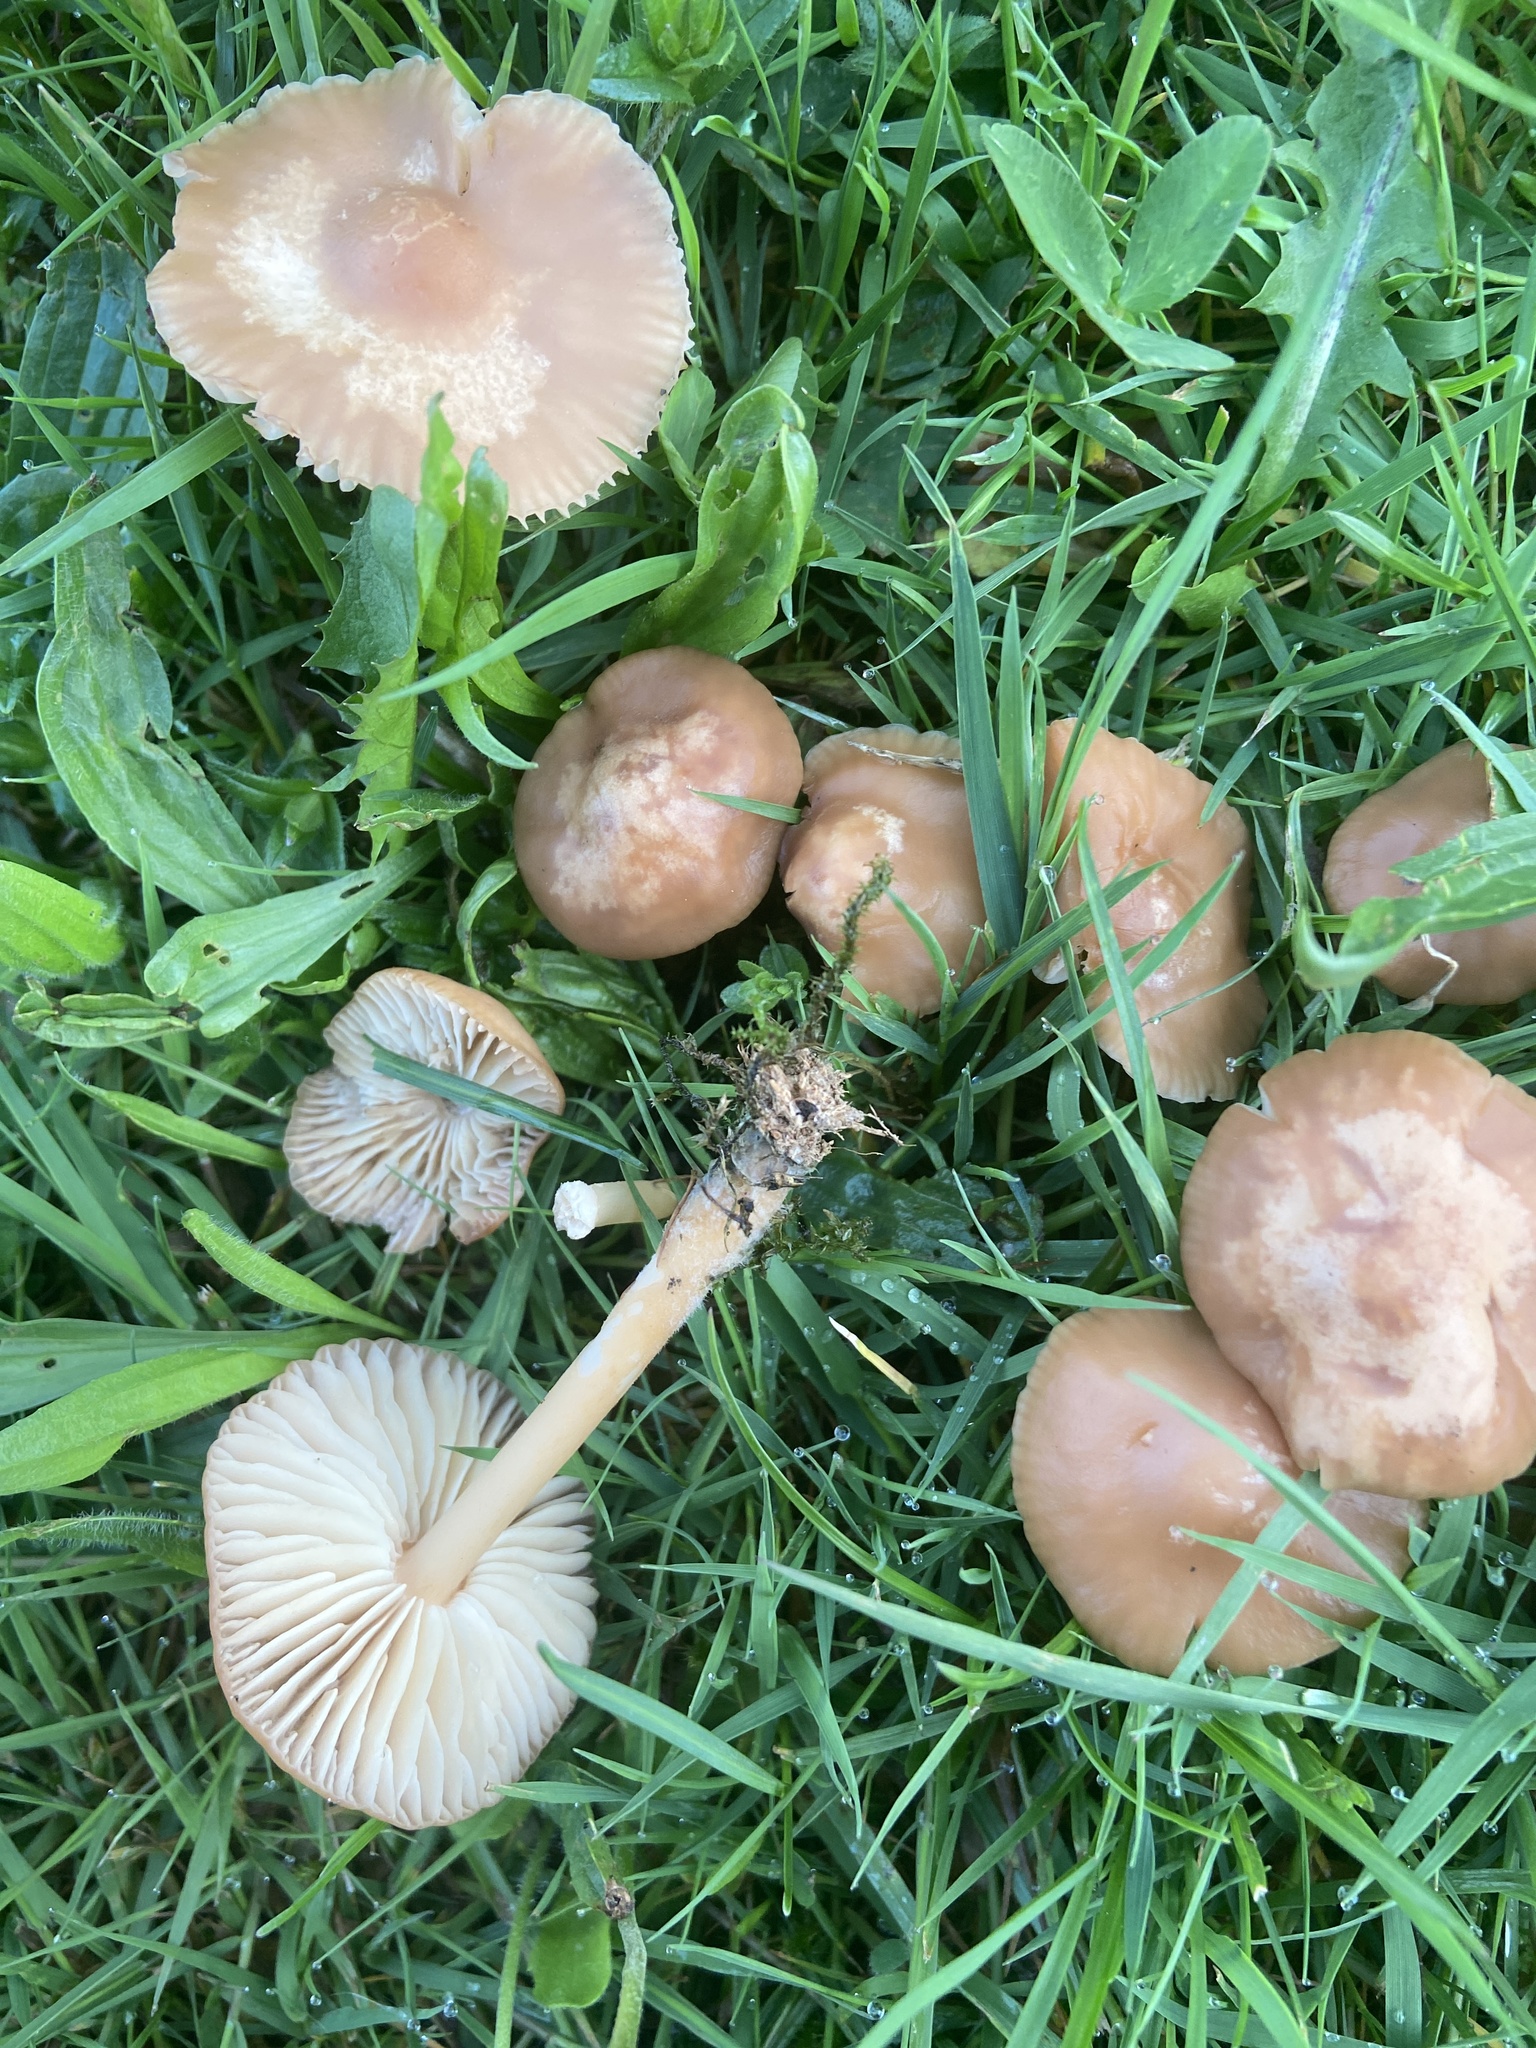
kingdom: Fungi
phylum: Basidiomycota
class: Agaricomycetes
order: Agaricales
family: Marasmiaceae
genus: Marasmius
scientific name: Marasmius oreades
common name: Fairy ring champignon
